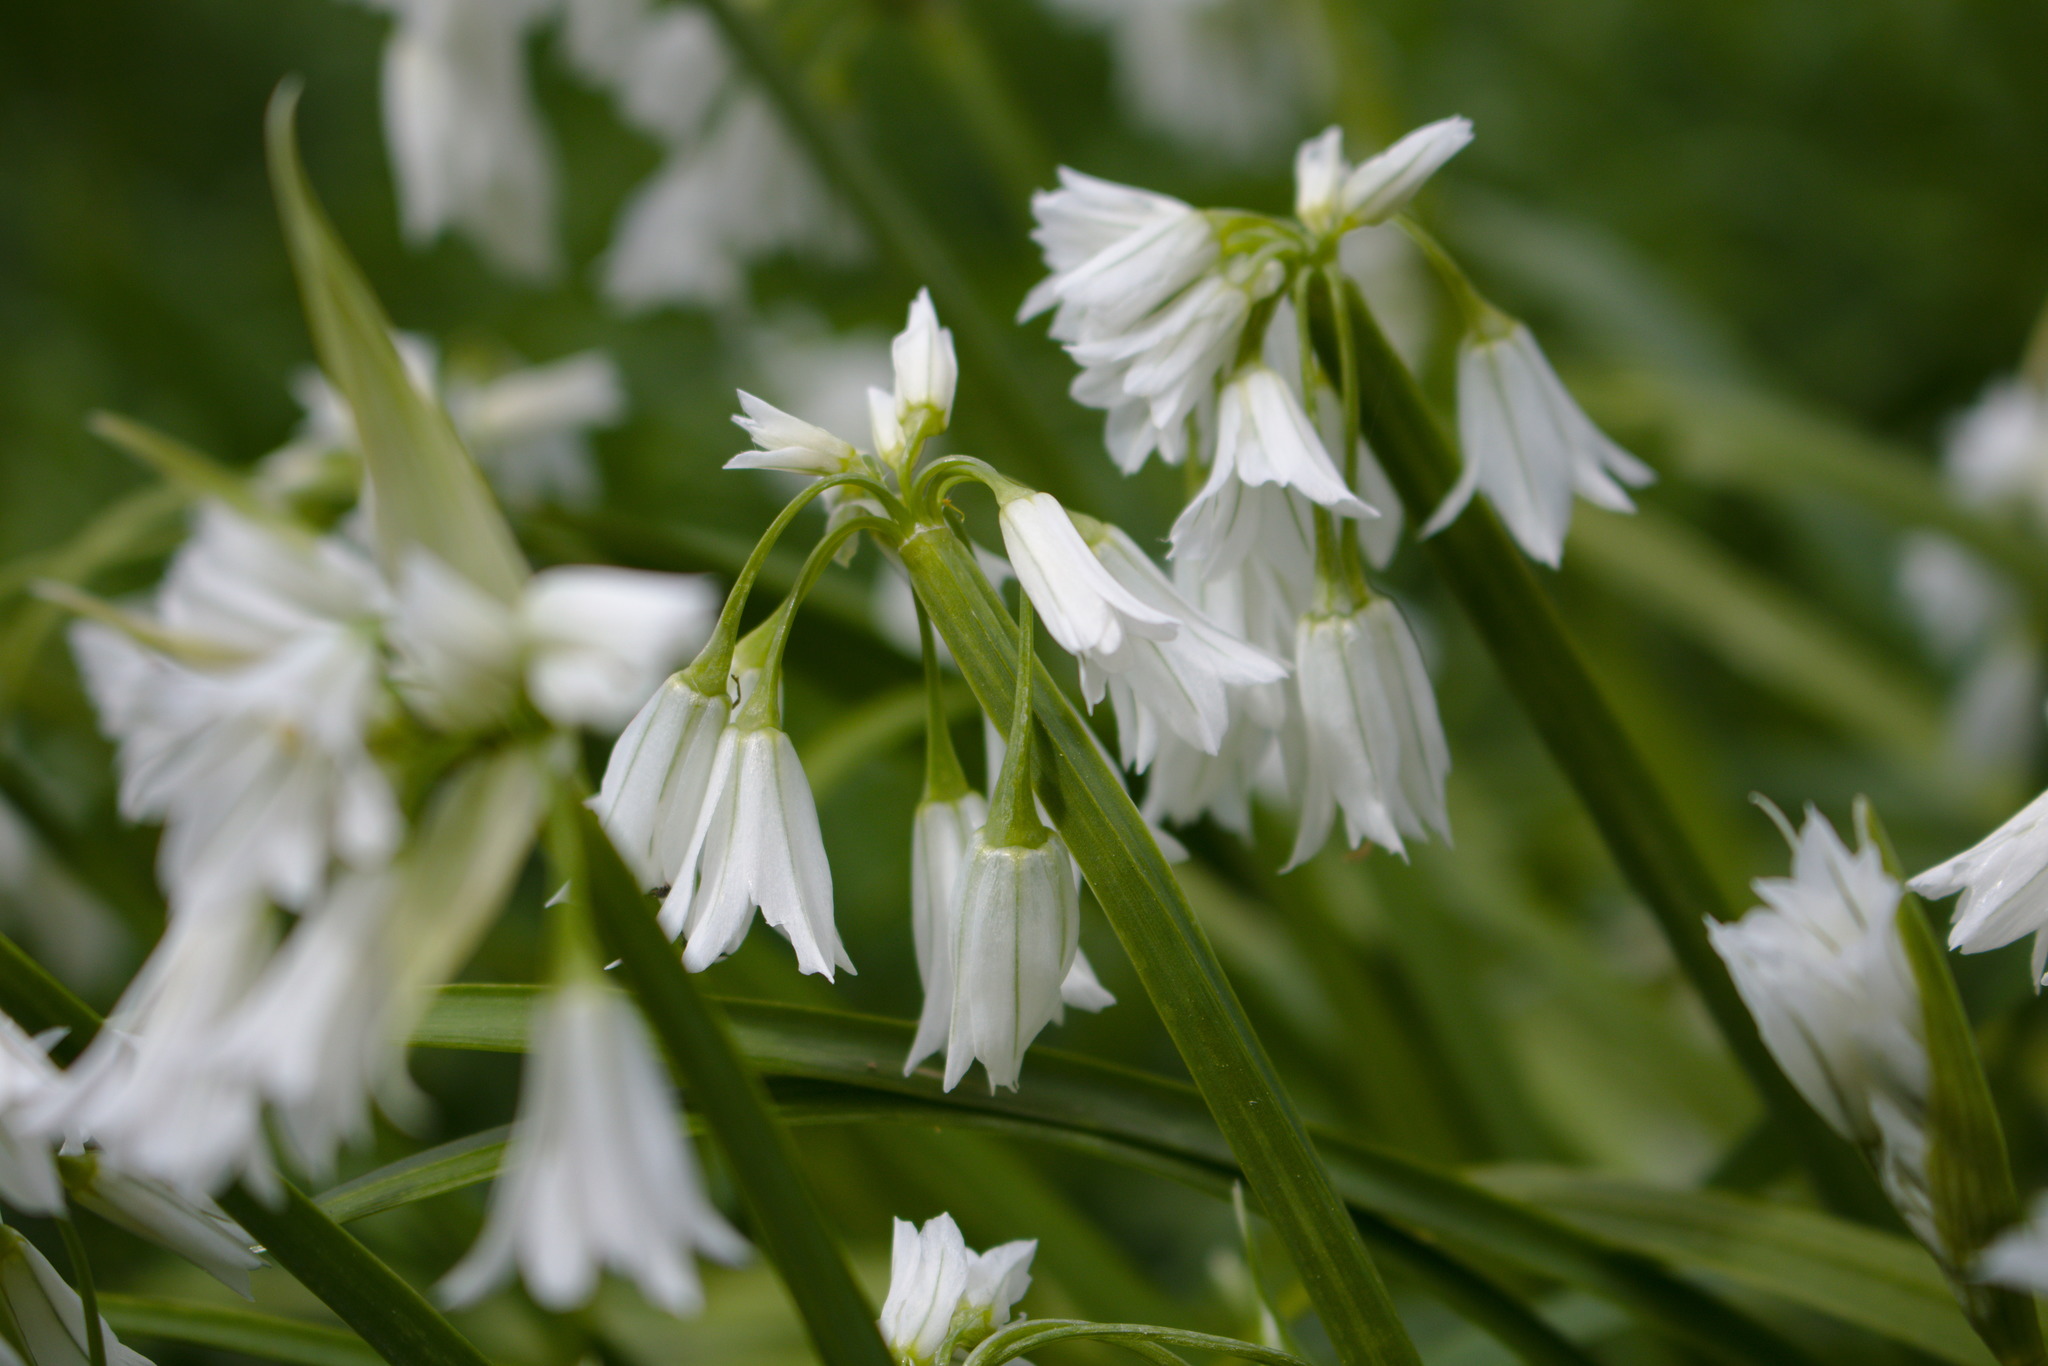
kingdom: Plantae
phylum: Tracheophyta
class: Liliopsida
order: Asparagales
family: Amaryllidaceae
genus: Allium
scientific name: Allium triquetrum
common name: Three-cornered garlic
